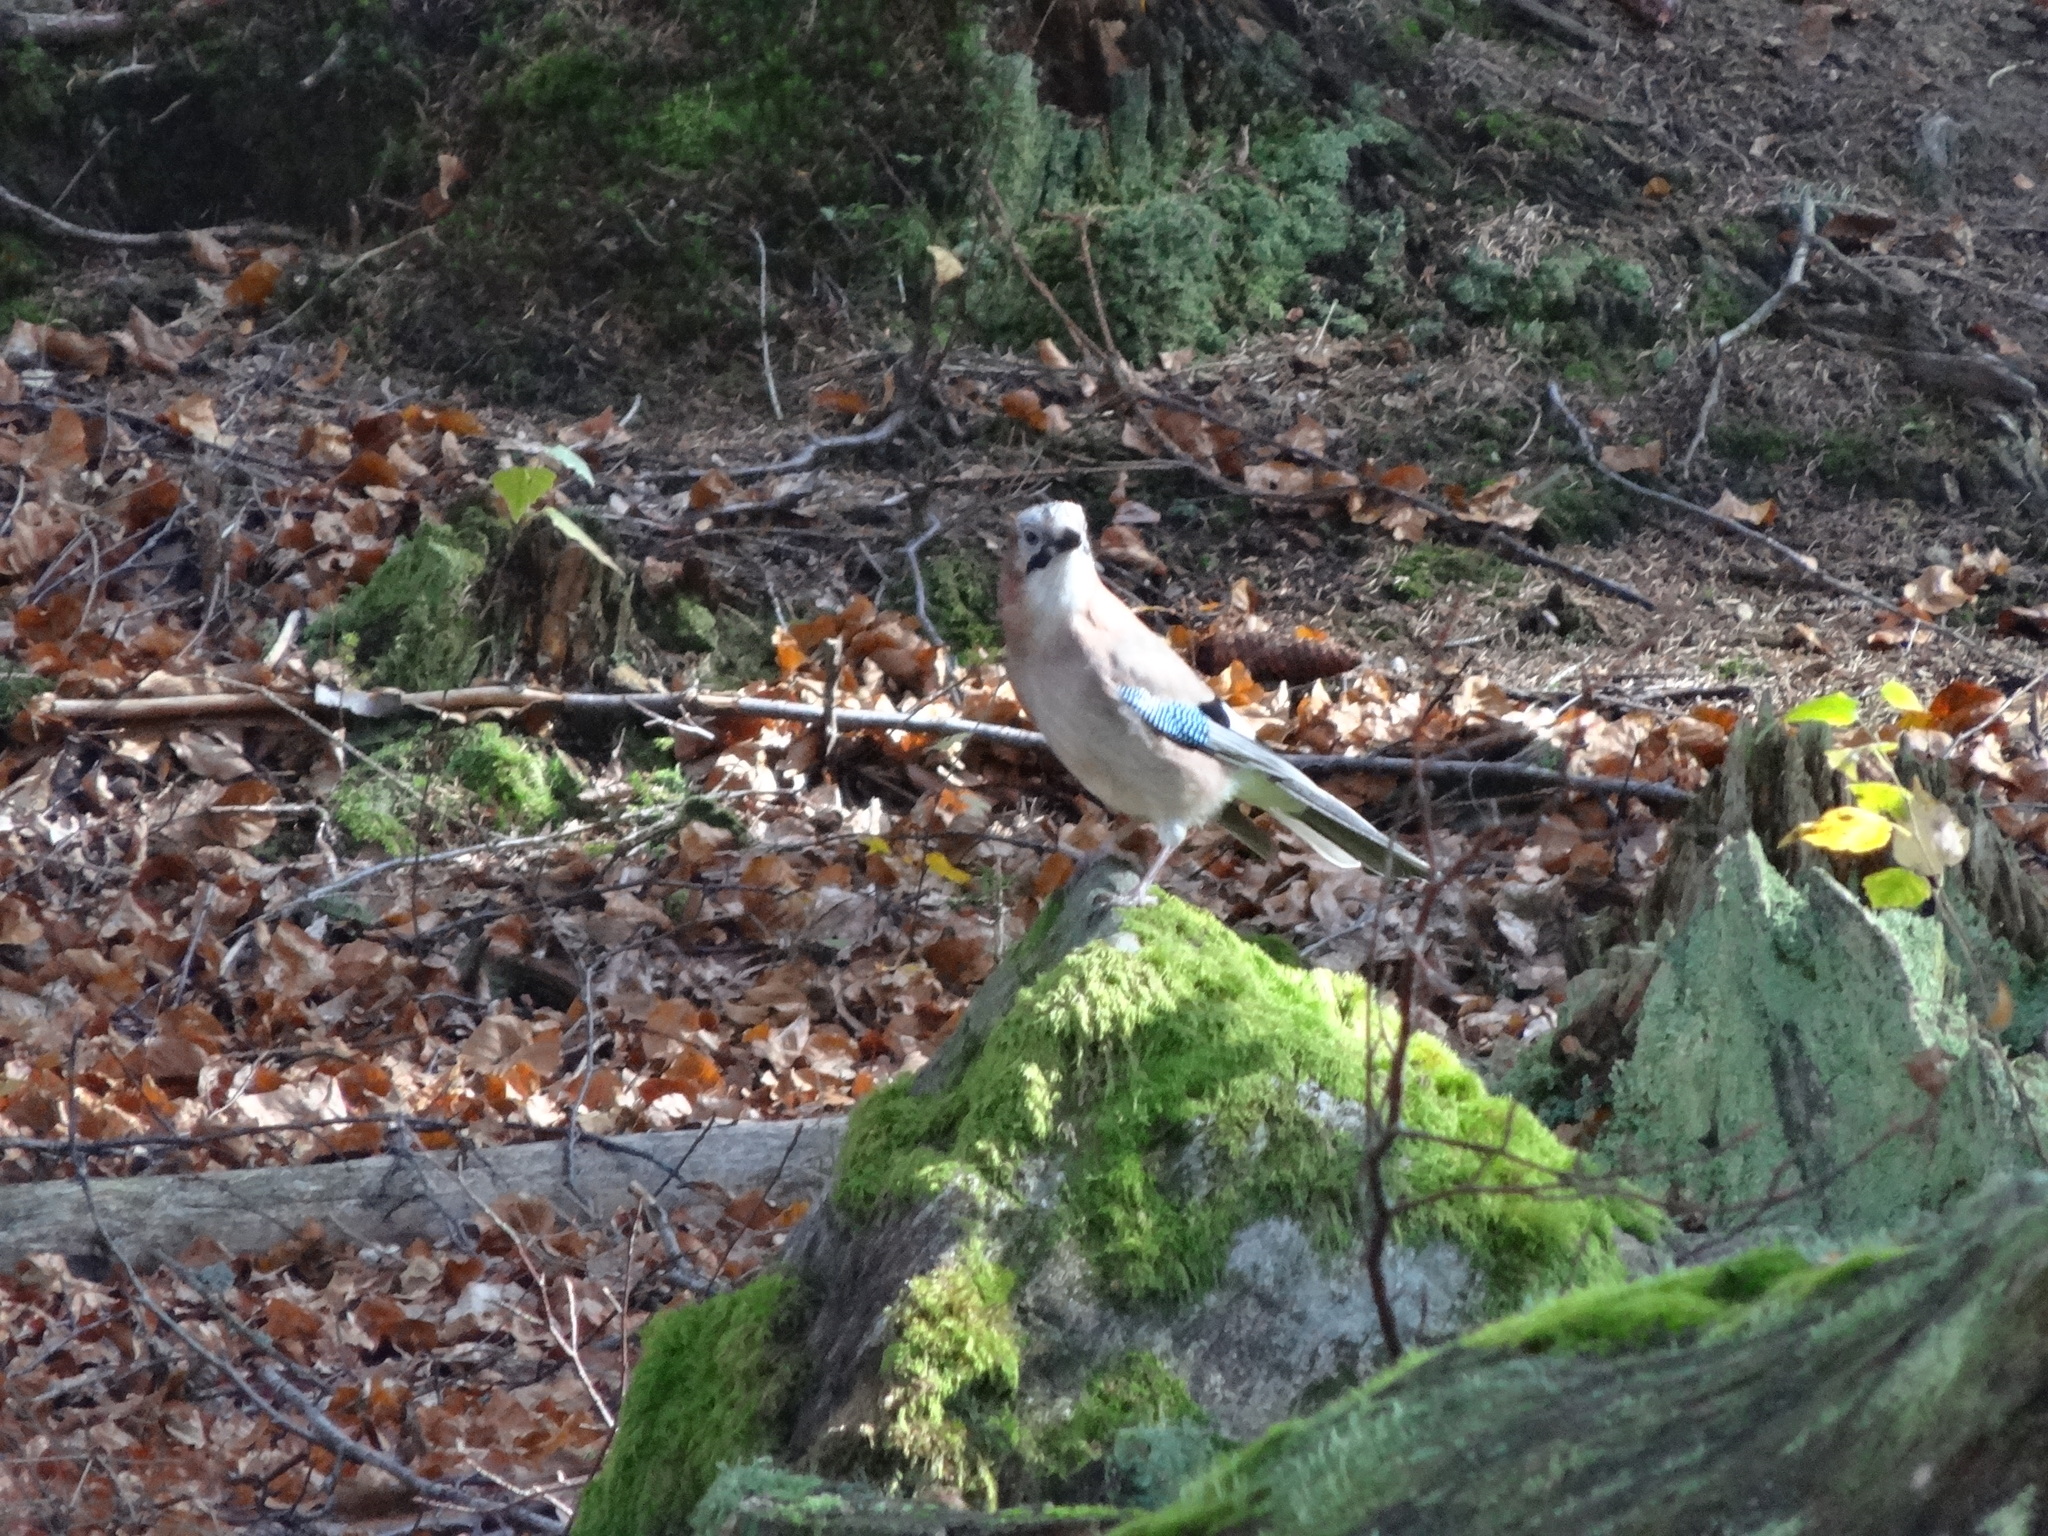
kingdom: Animalia
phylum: Chordata
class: Aves
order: Passeriformes
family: Corvidae
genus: Garrulus
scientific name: Garrulus glandarius
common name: Eurasian jay
